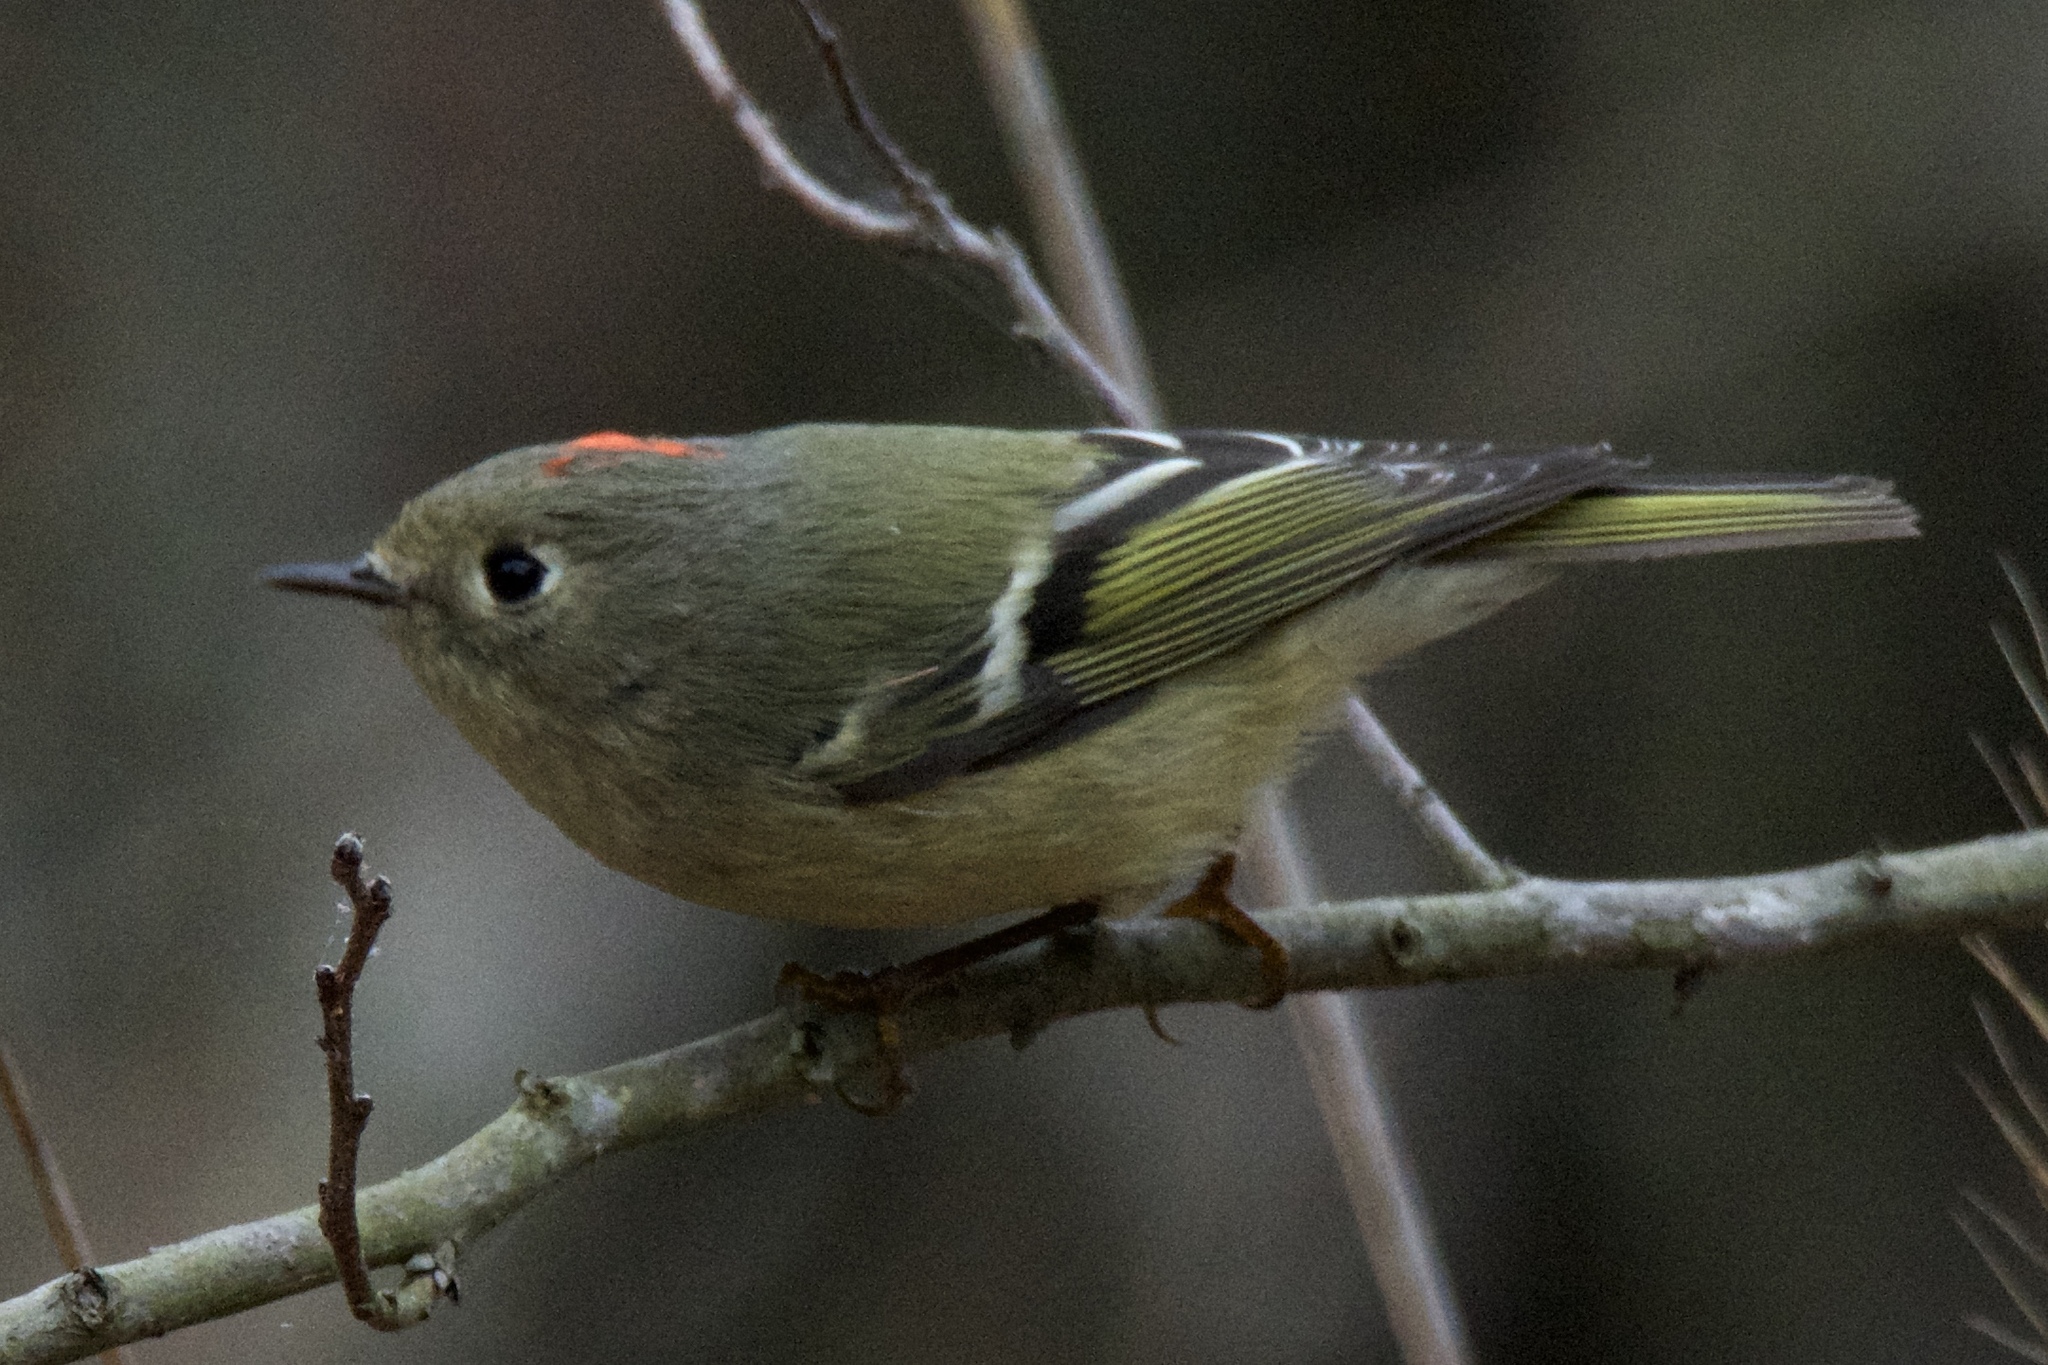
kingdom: Animalia
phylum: Chordata
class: Aves
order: Passeriformes
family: Regulidae
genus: Regulus
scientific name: Regulus calendula
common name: Ruby-crowned kinglet
